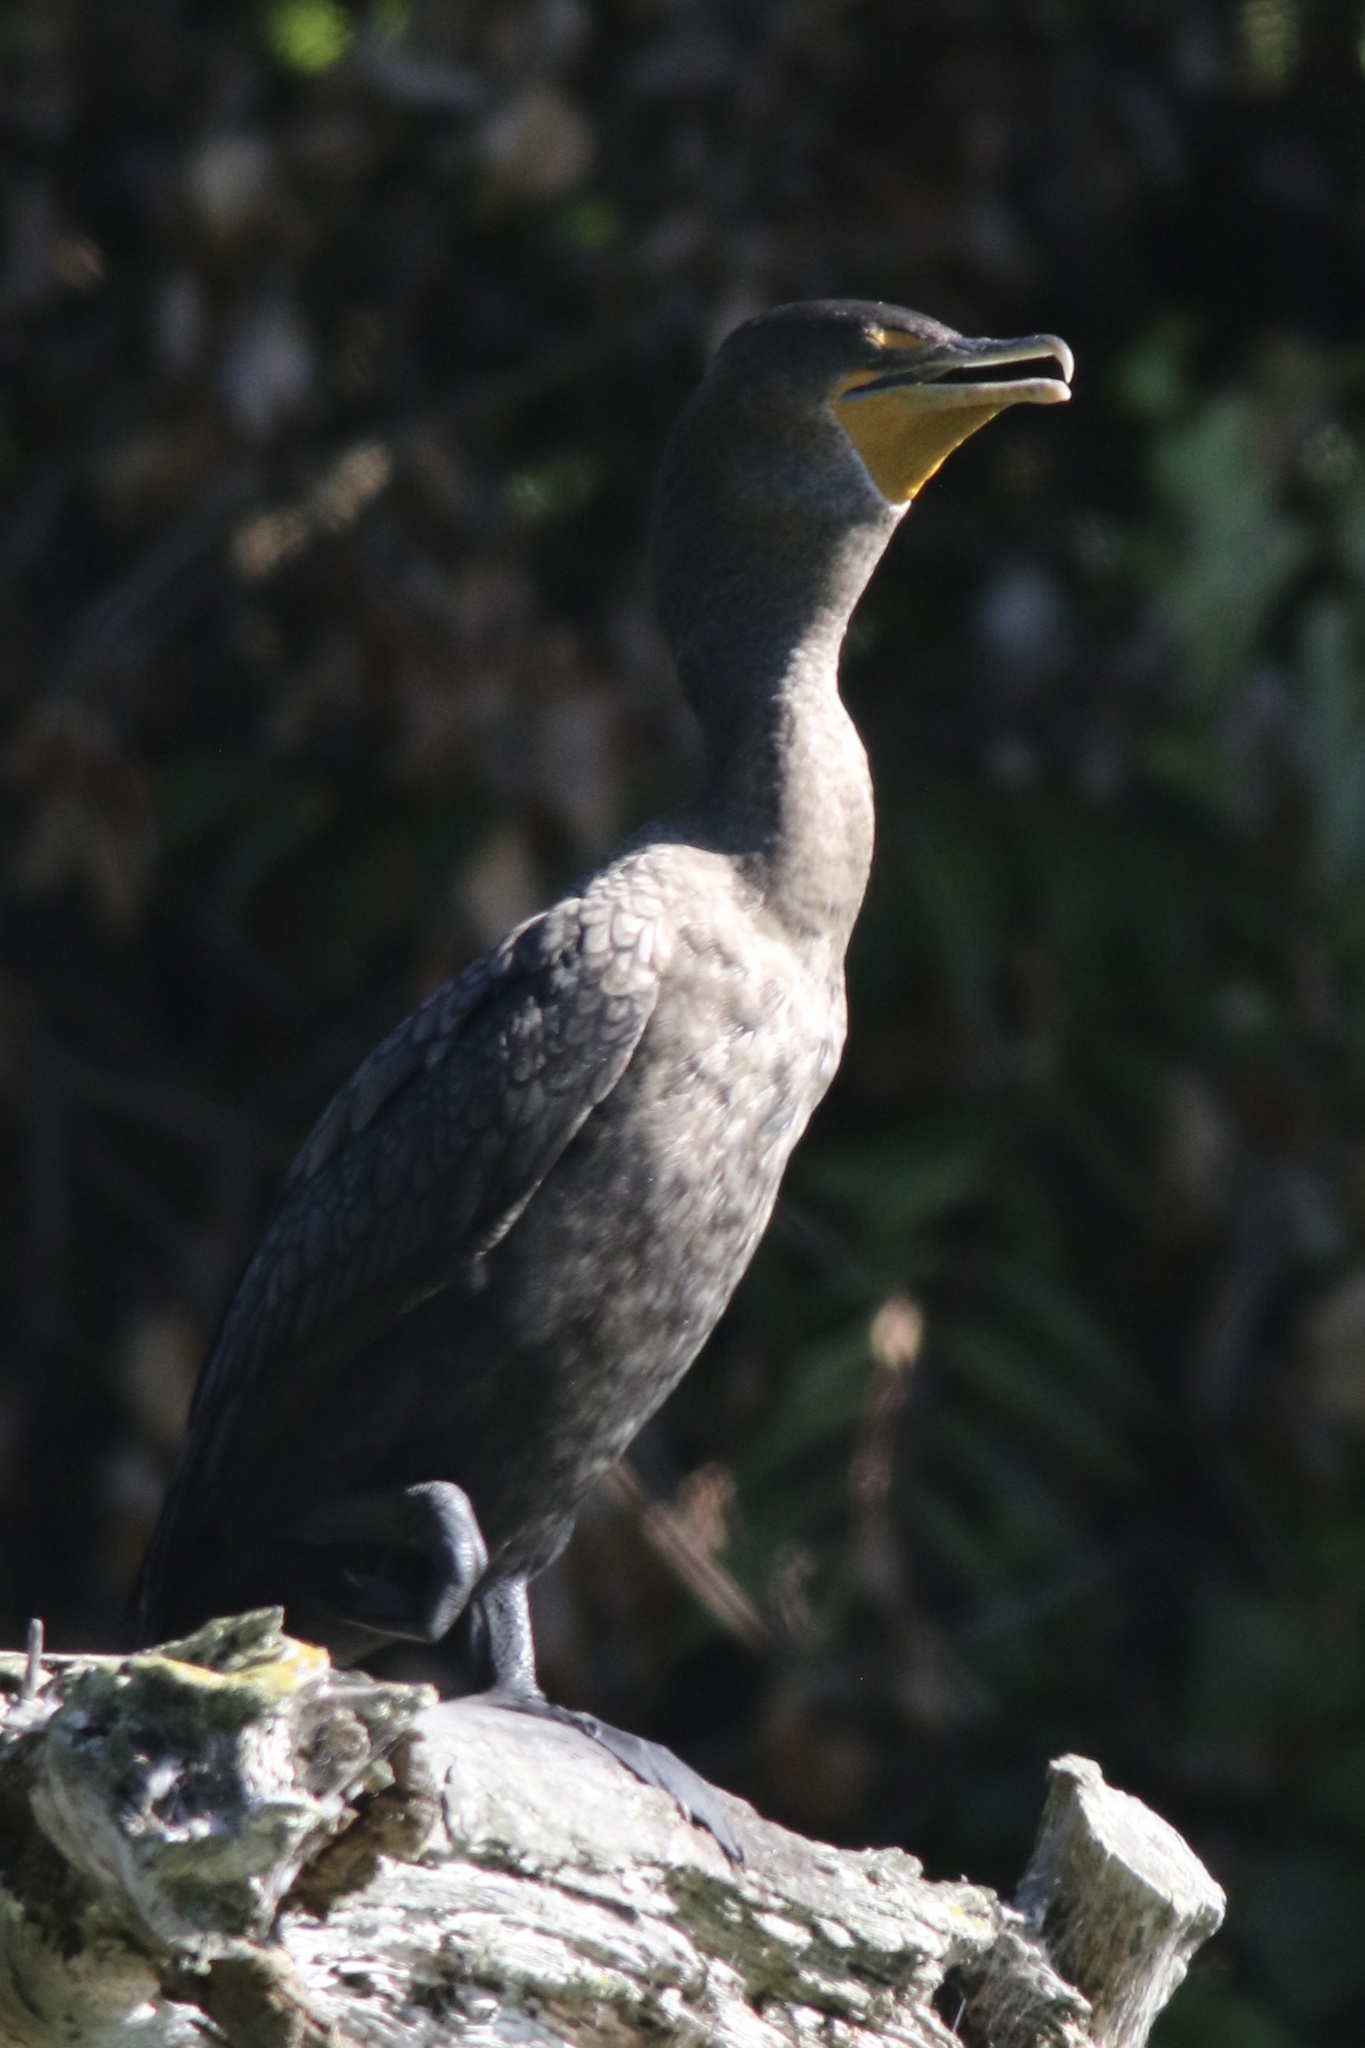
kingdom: Animalia
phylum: Chordata
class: Aves
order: Suliformes
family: Phalacrocoracidae
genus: Phalacrocorax
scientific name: Phalacrocorax auritus
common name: Double-crested cormorant
